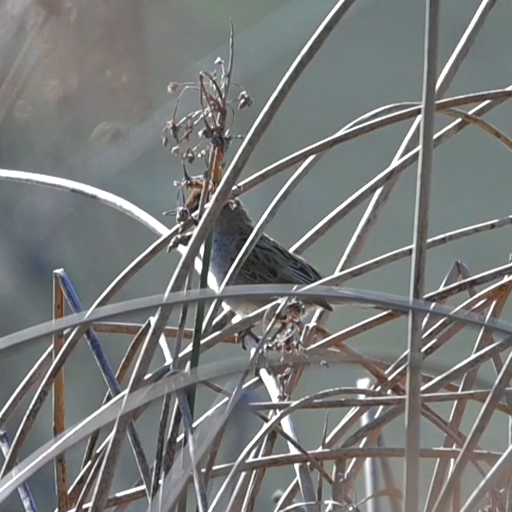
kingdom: Animalia
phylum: Chordata
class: Aves
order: Passeriformes
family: Locustellidae
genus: Megalurus
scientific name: Megalurus gramineus
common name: Little grassbird
